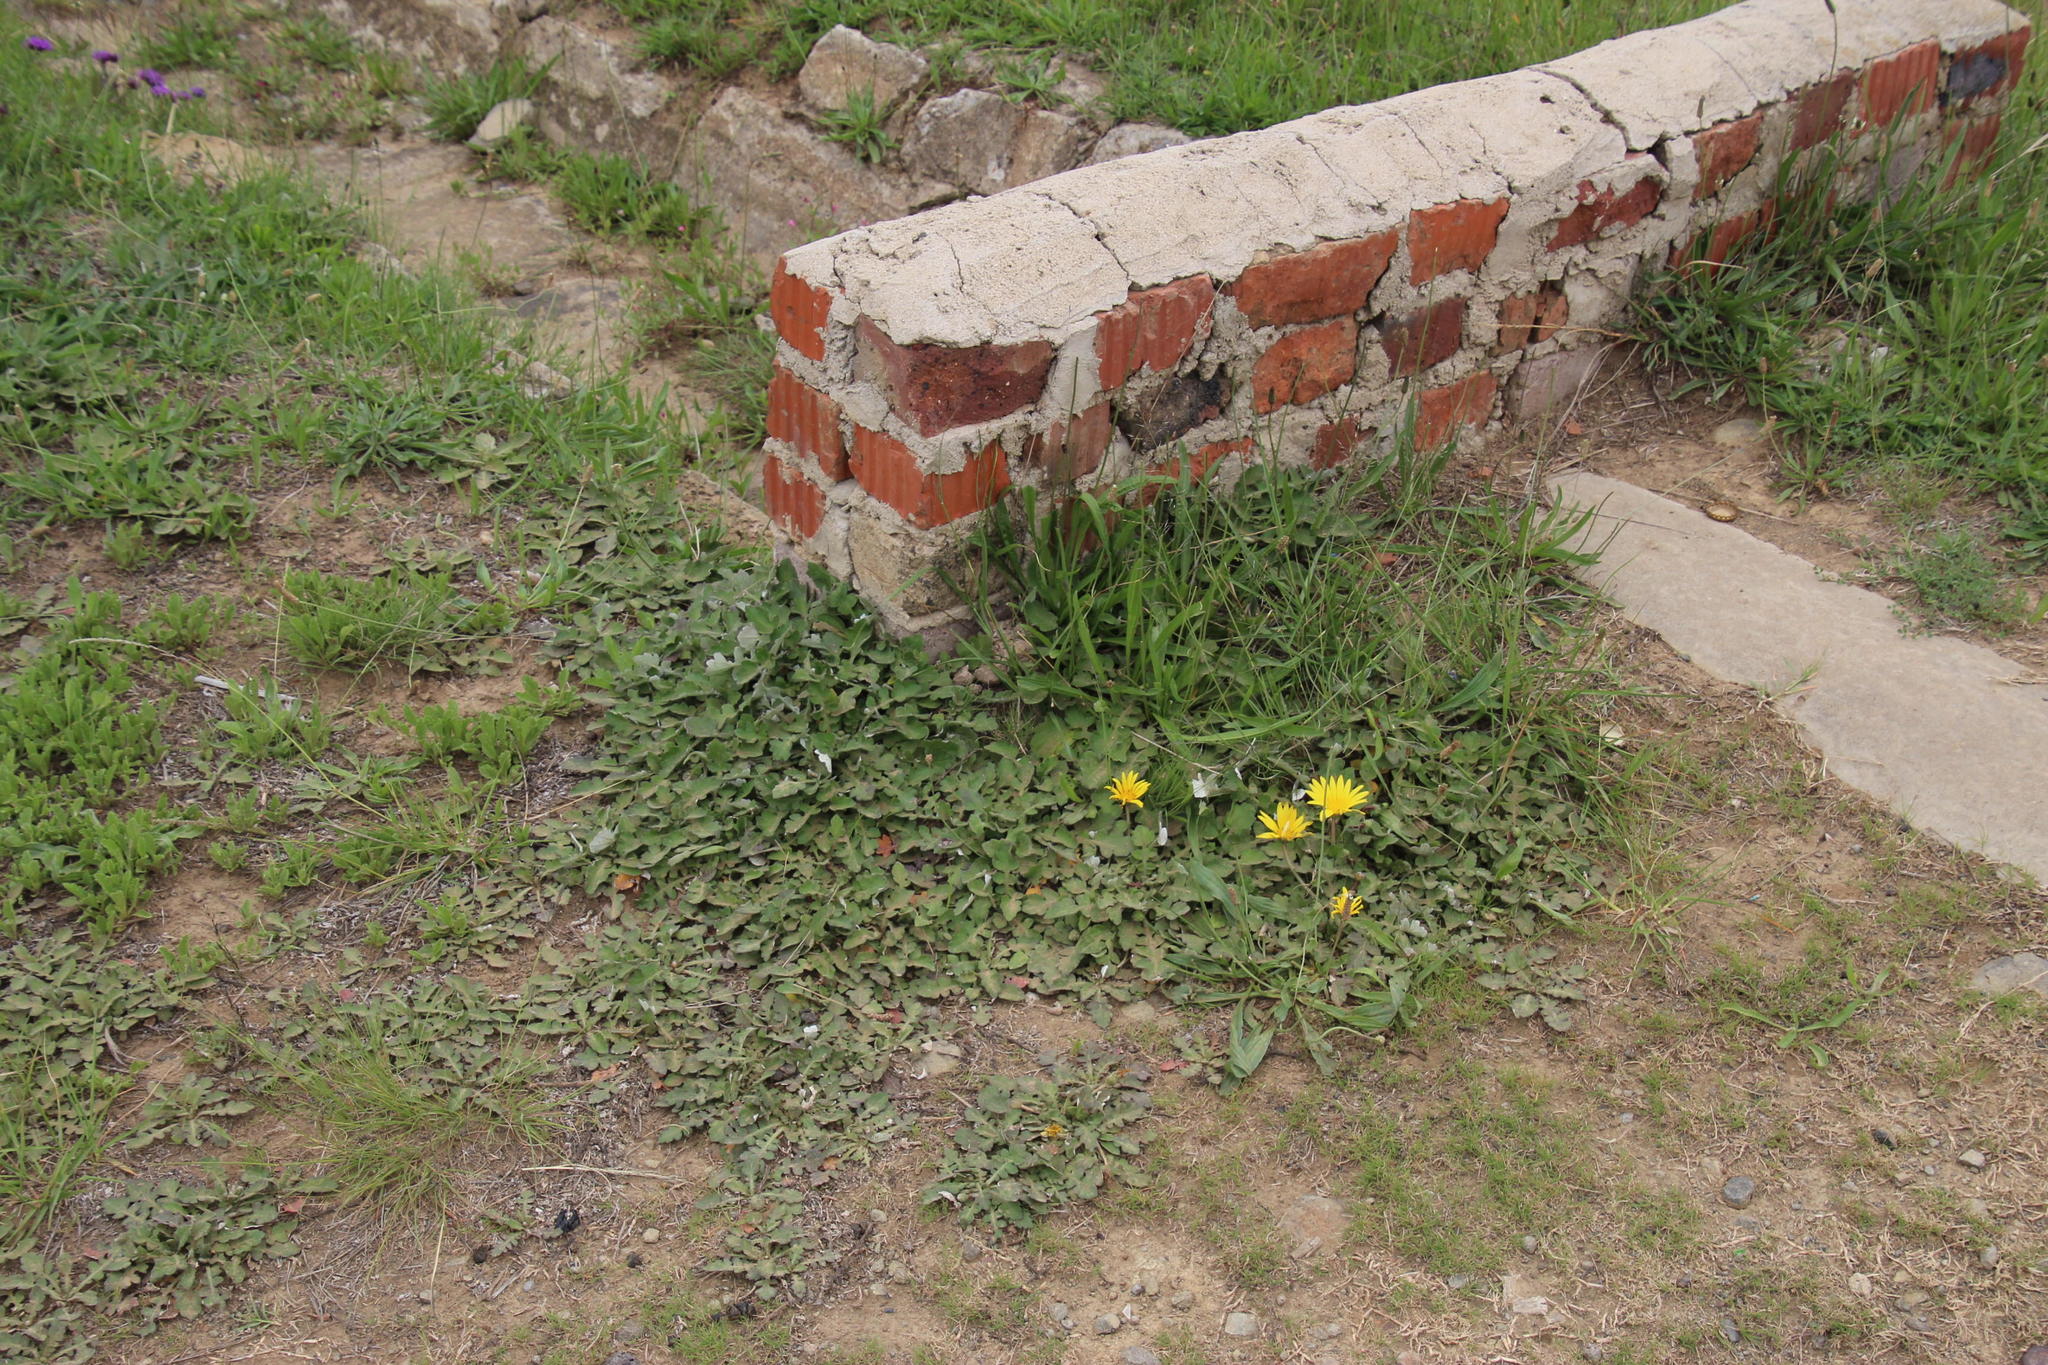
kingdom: Plantae
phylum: Tracheophyta
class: Magnoliopsida
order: Asterales
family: Asteraceae
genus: Arctotheca
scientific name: Arctotheca prostrata
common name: Capeweed
